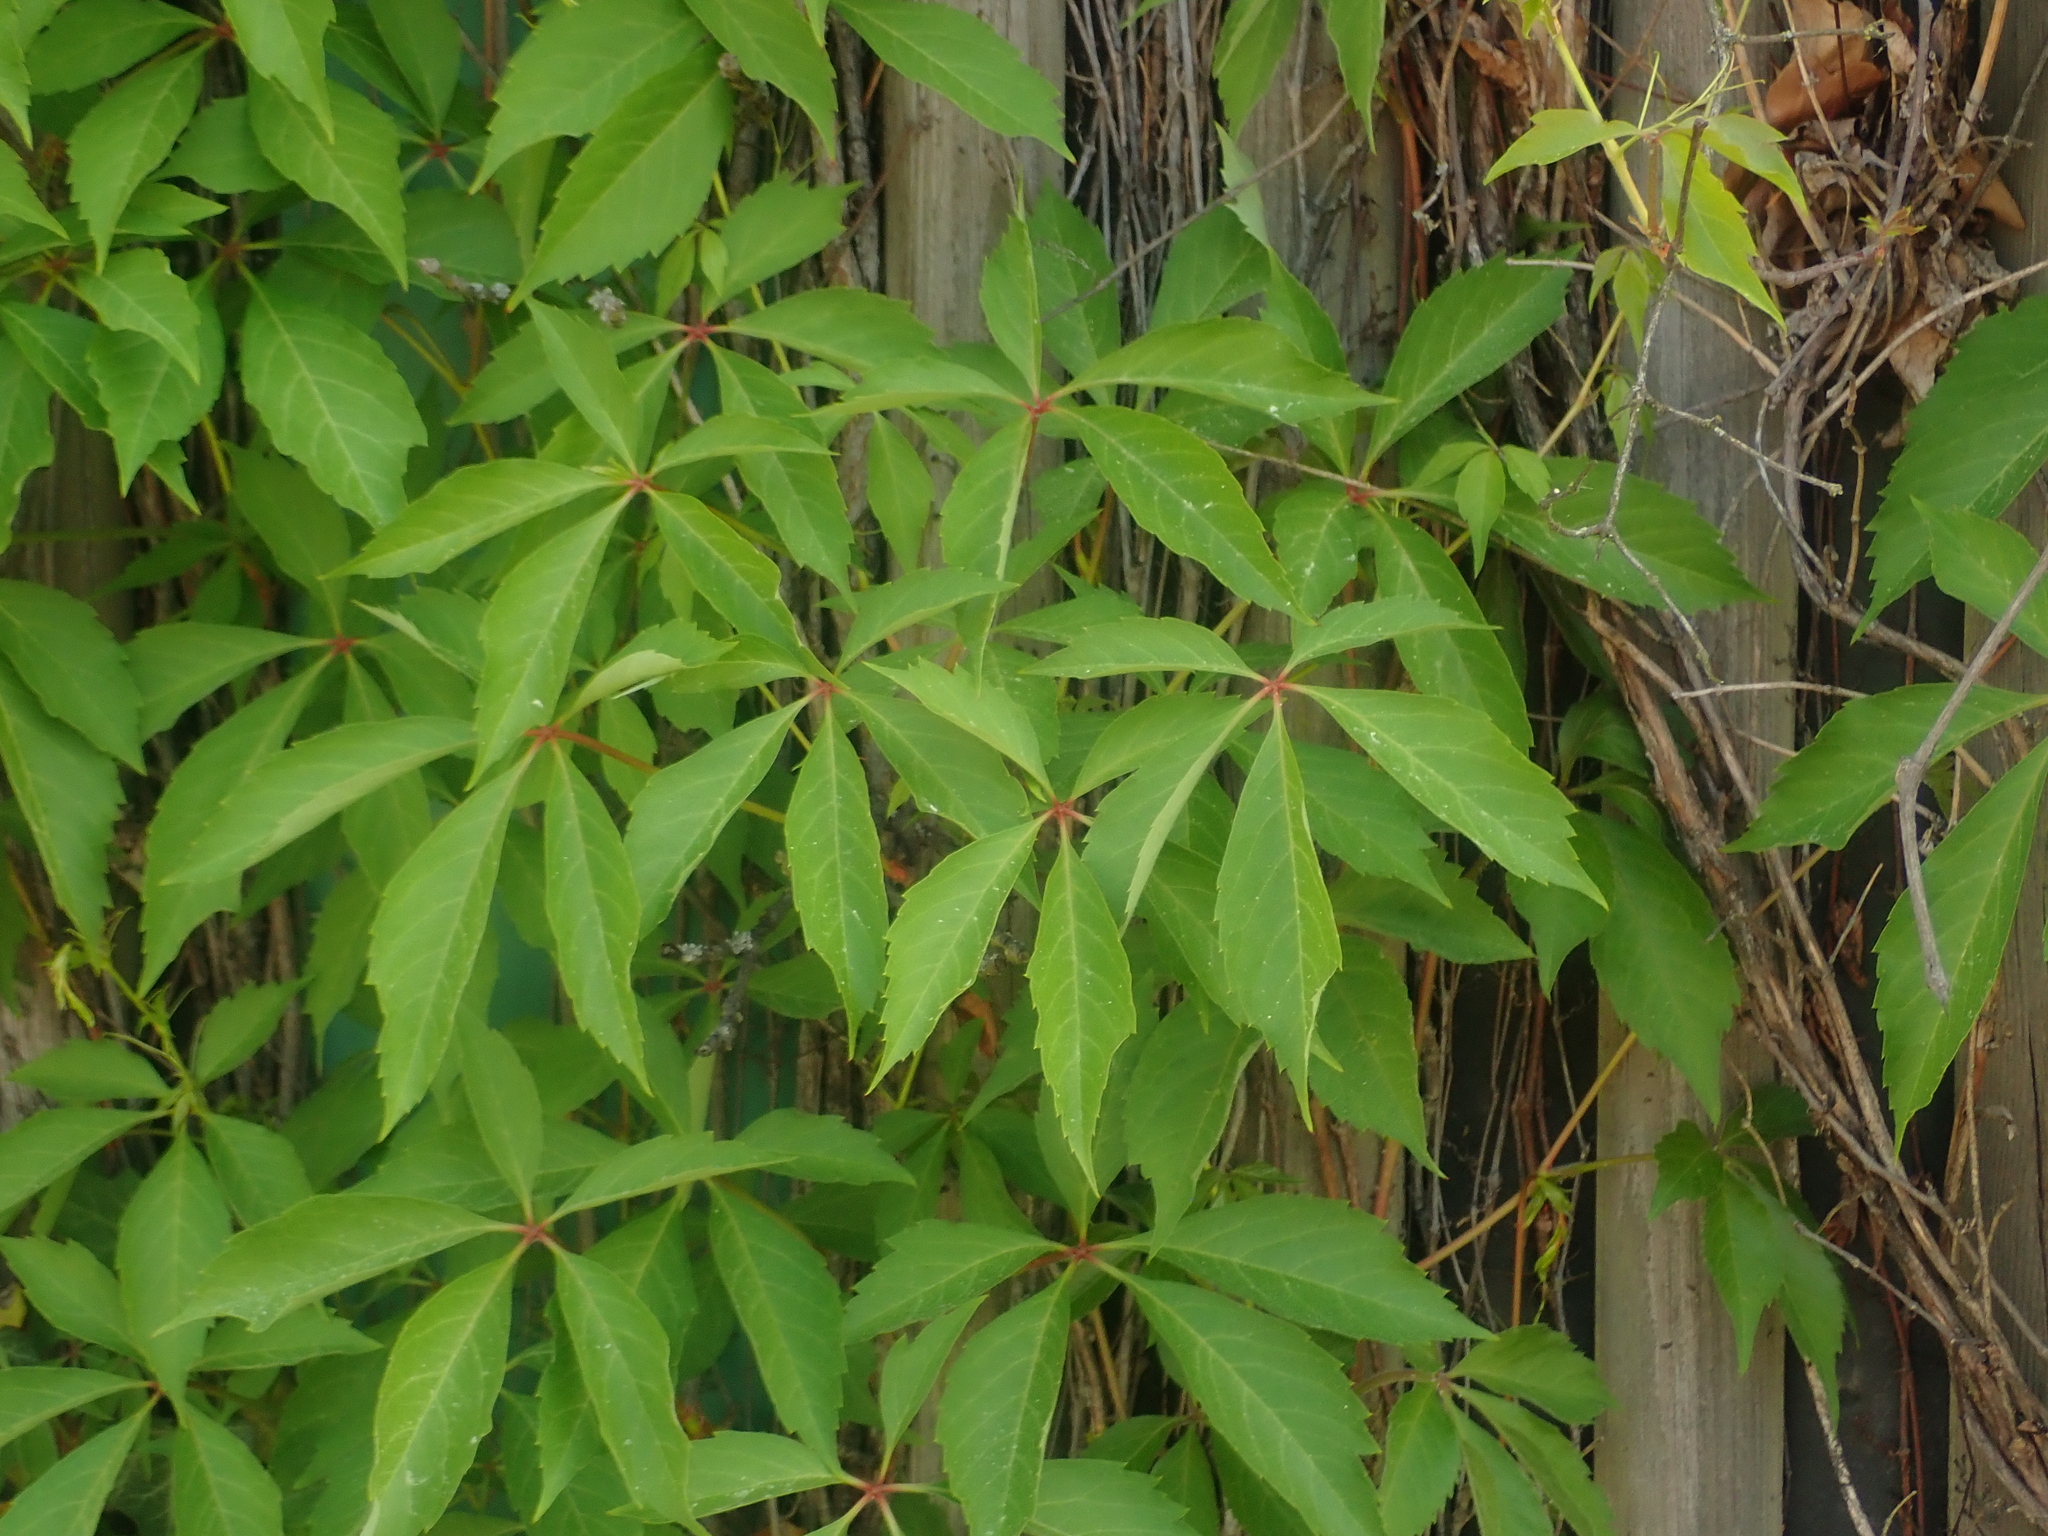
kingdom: Plantae
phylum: Tracheophyta
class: Magnoliopsida
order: Vitales
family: Vitaceae
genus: Parthenocissus
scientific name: Parthenocissus quinquefolia
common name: Virginia-creeper
